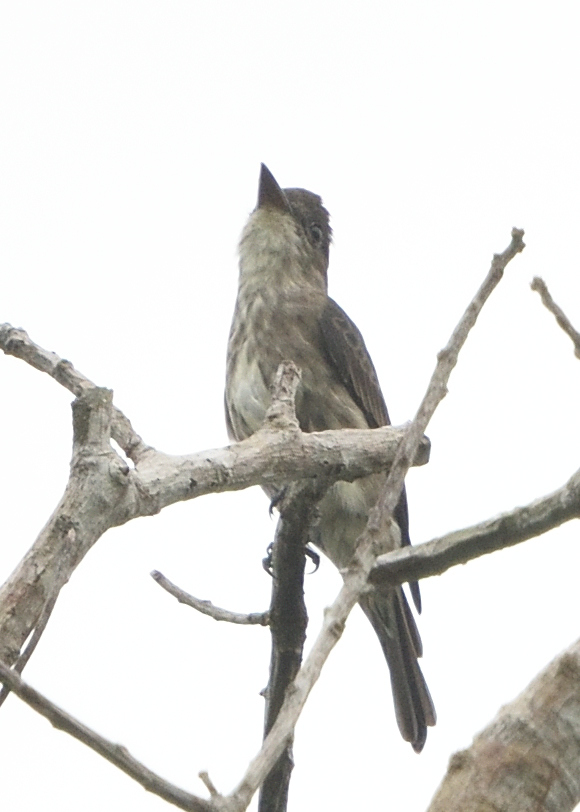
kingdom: Animalia
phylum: Chordata
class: Aves
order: Passeriformes
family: Tyrannidae
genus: Contopus
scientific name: Contopus cooperi
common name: Olive-sided flycatcher
